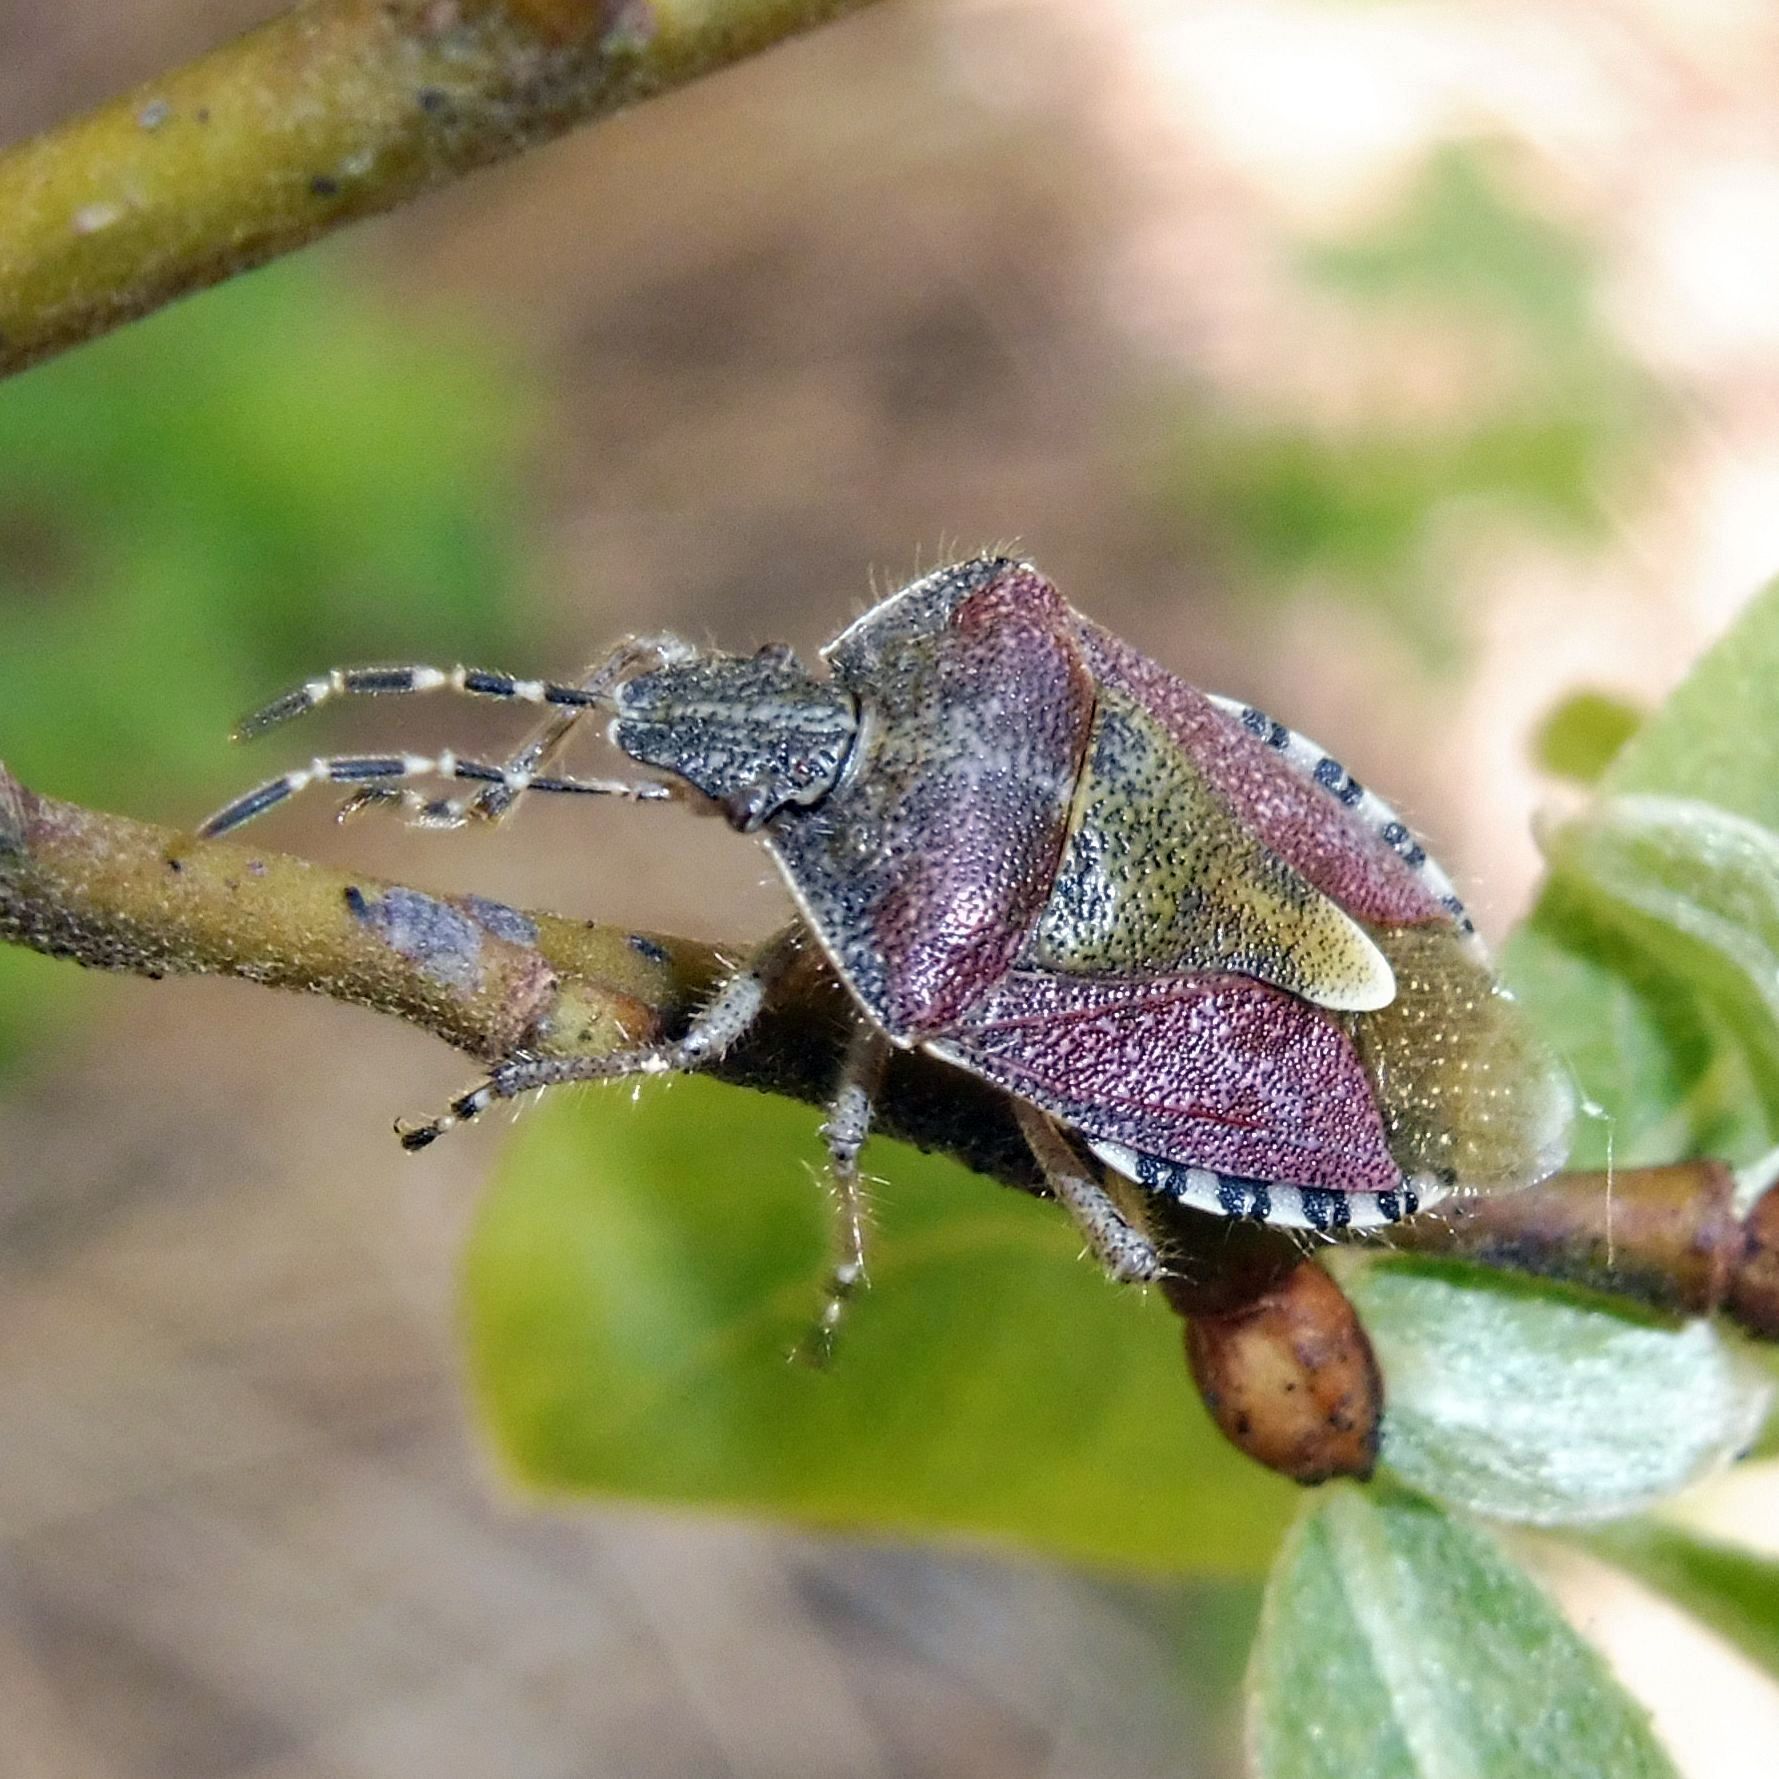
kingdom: Animalia
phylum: Arthropoda
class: Insecta
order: Hemiptera
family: Pentatomidae
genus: Dolycoris
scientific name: Dolycoris baccarum
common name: Sloe bug
